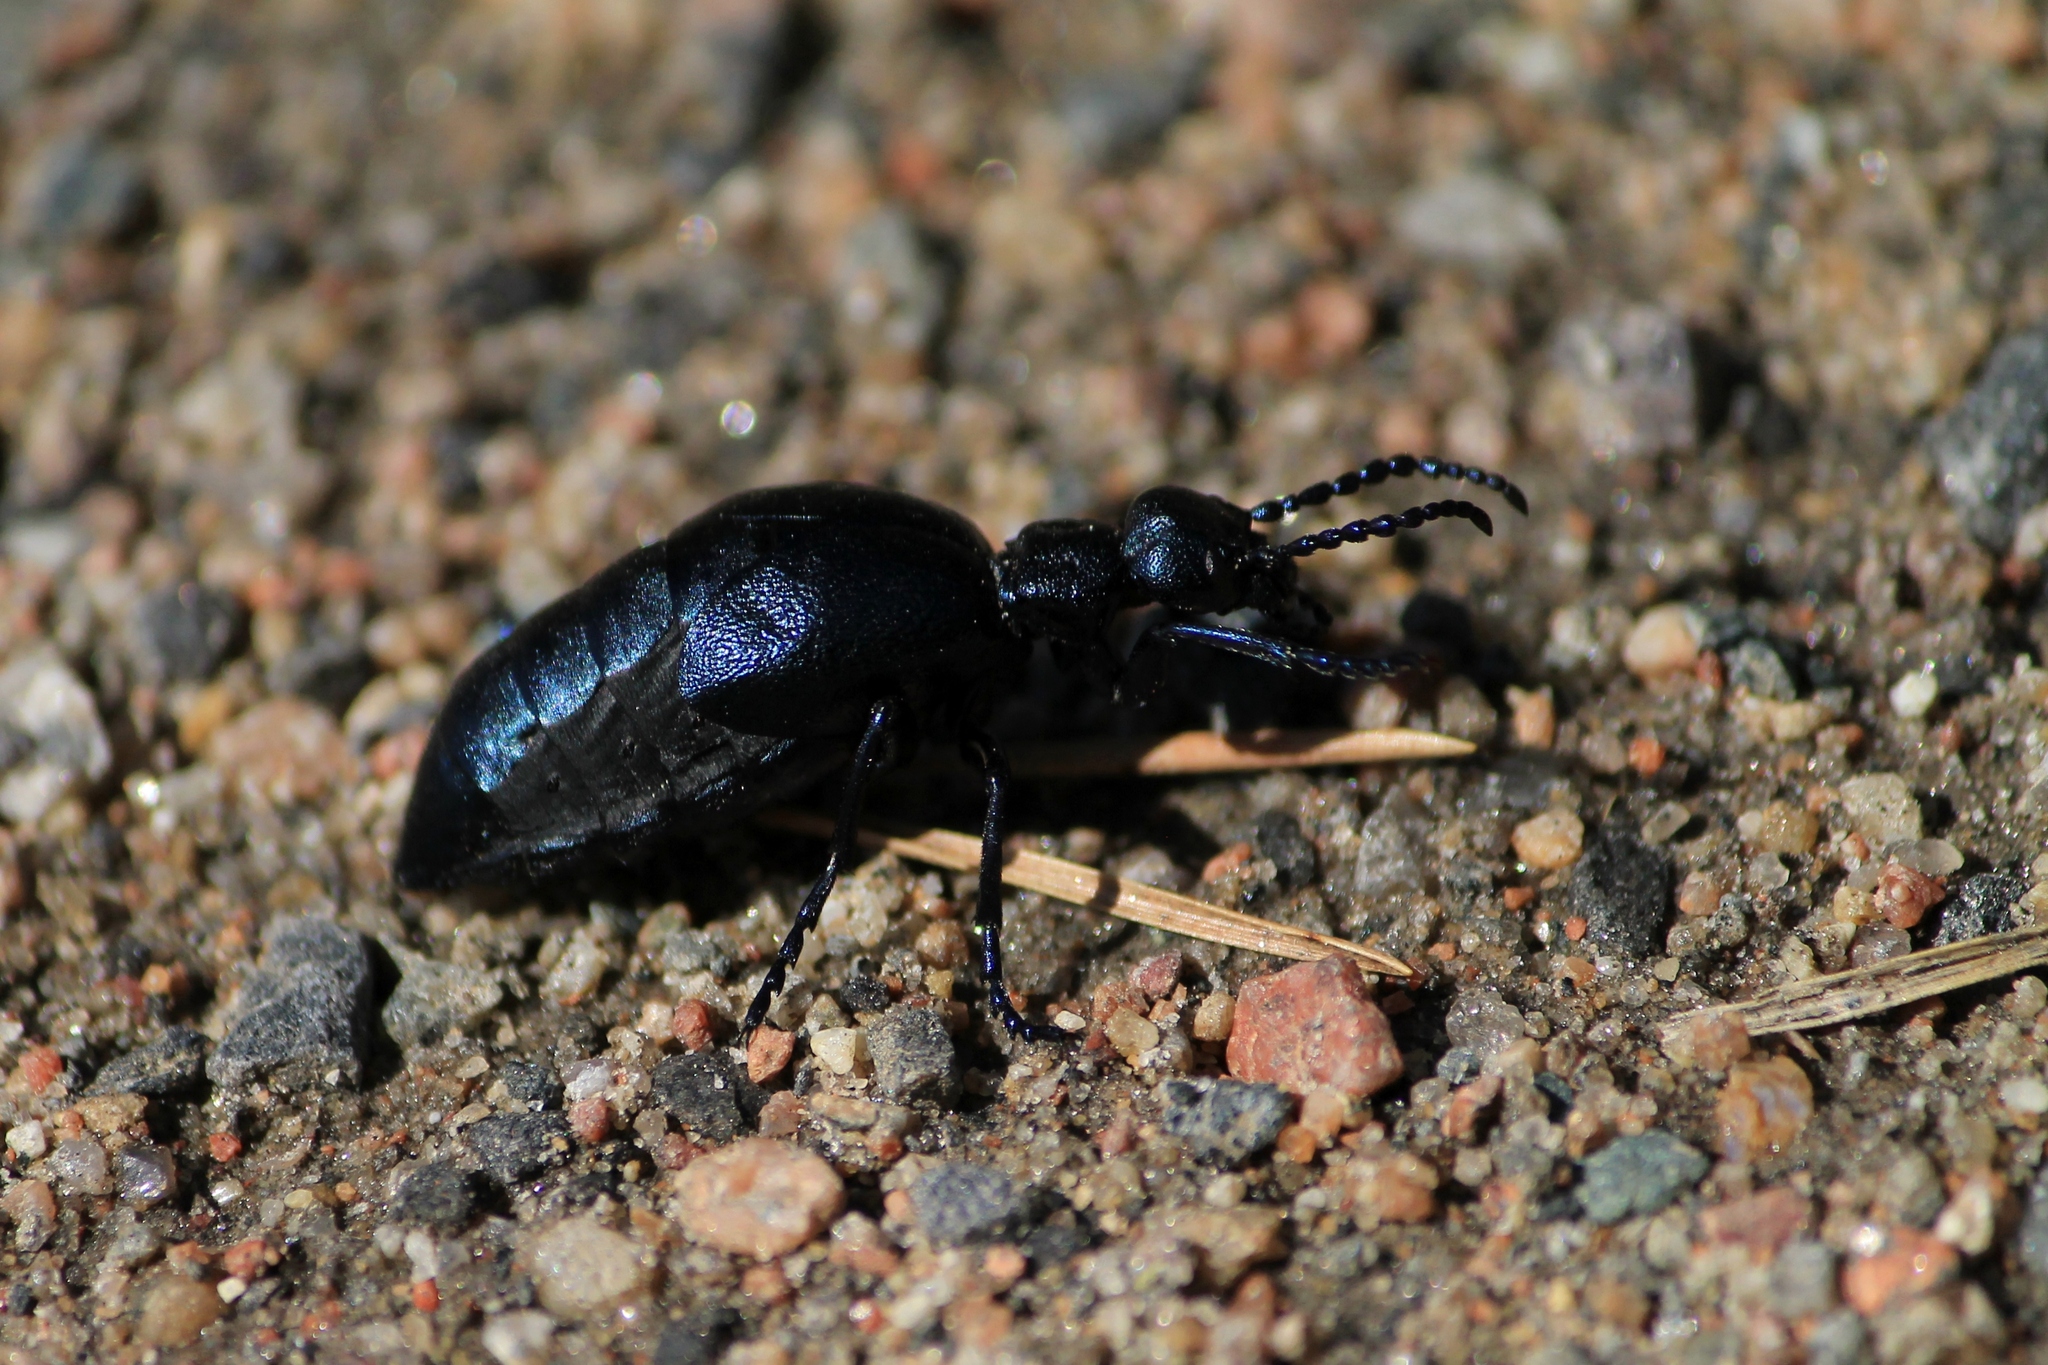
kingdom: Animalia
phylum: Arthropoda
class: Insecta
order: Coleoptera
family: Meloidae
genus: Meloe
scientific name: Meloe violaceus
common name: Violet oil-beetle
